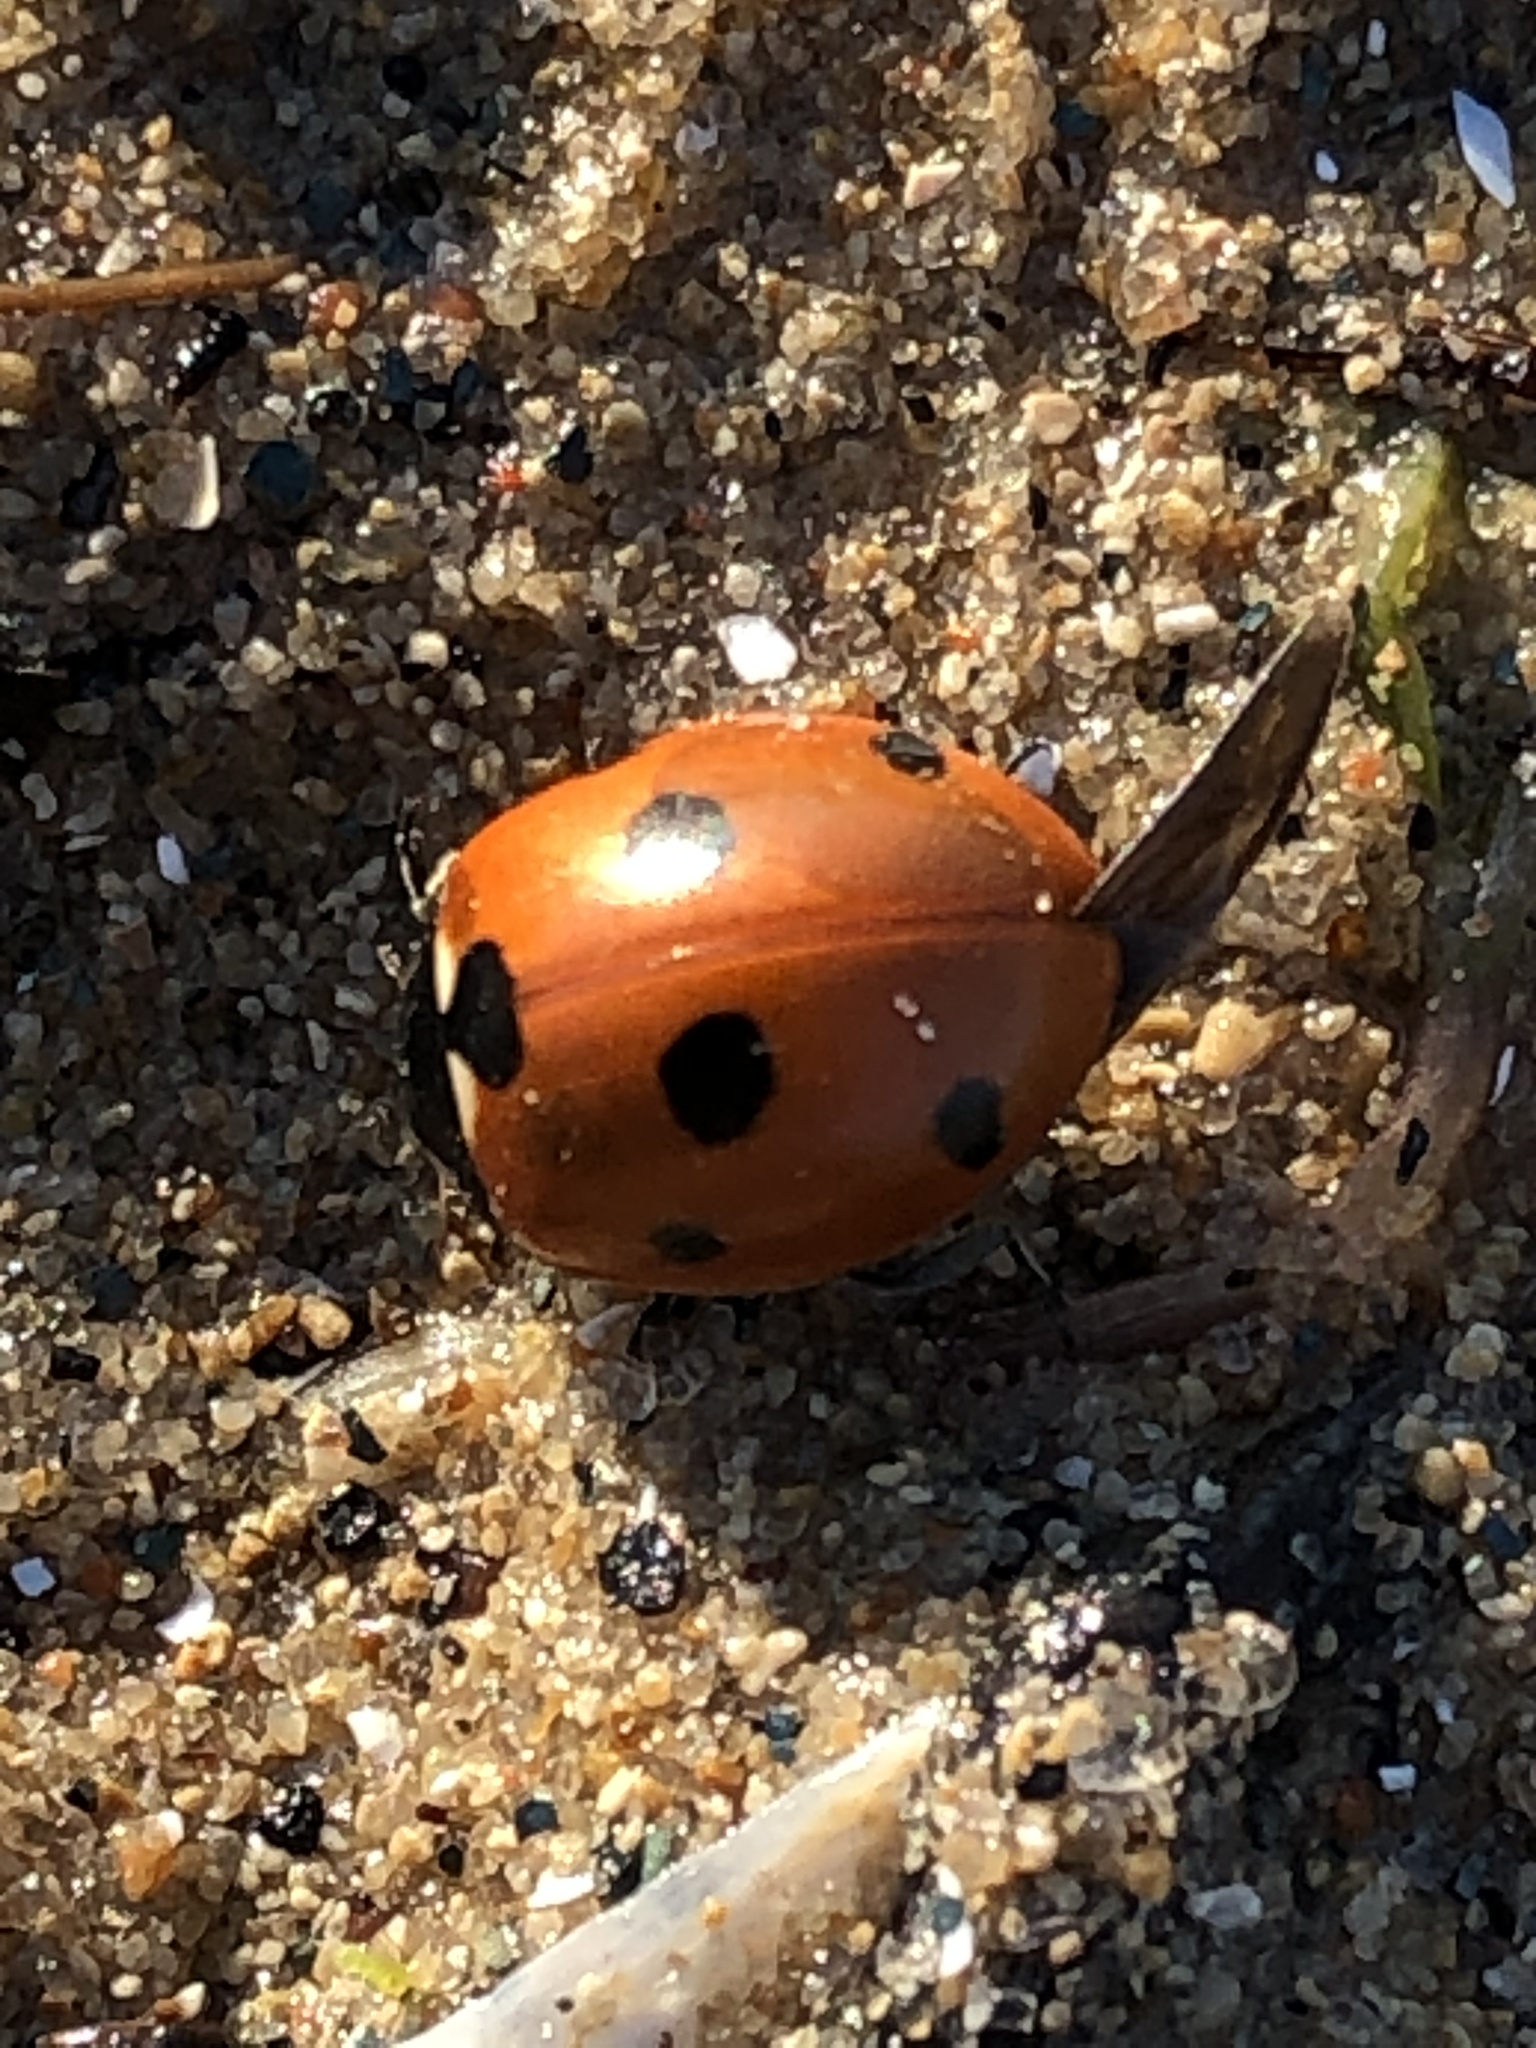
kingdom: Animalia
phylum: Arthropoda
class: Insecta
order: Coleoptera
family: Coccinellidae
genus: Coccinella
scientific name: Coccinella septempunctata
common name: Sevenspotted lady beetle
